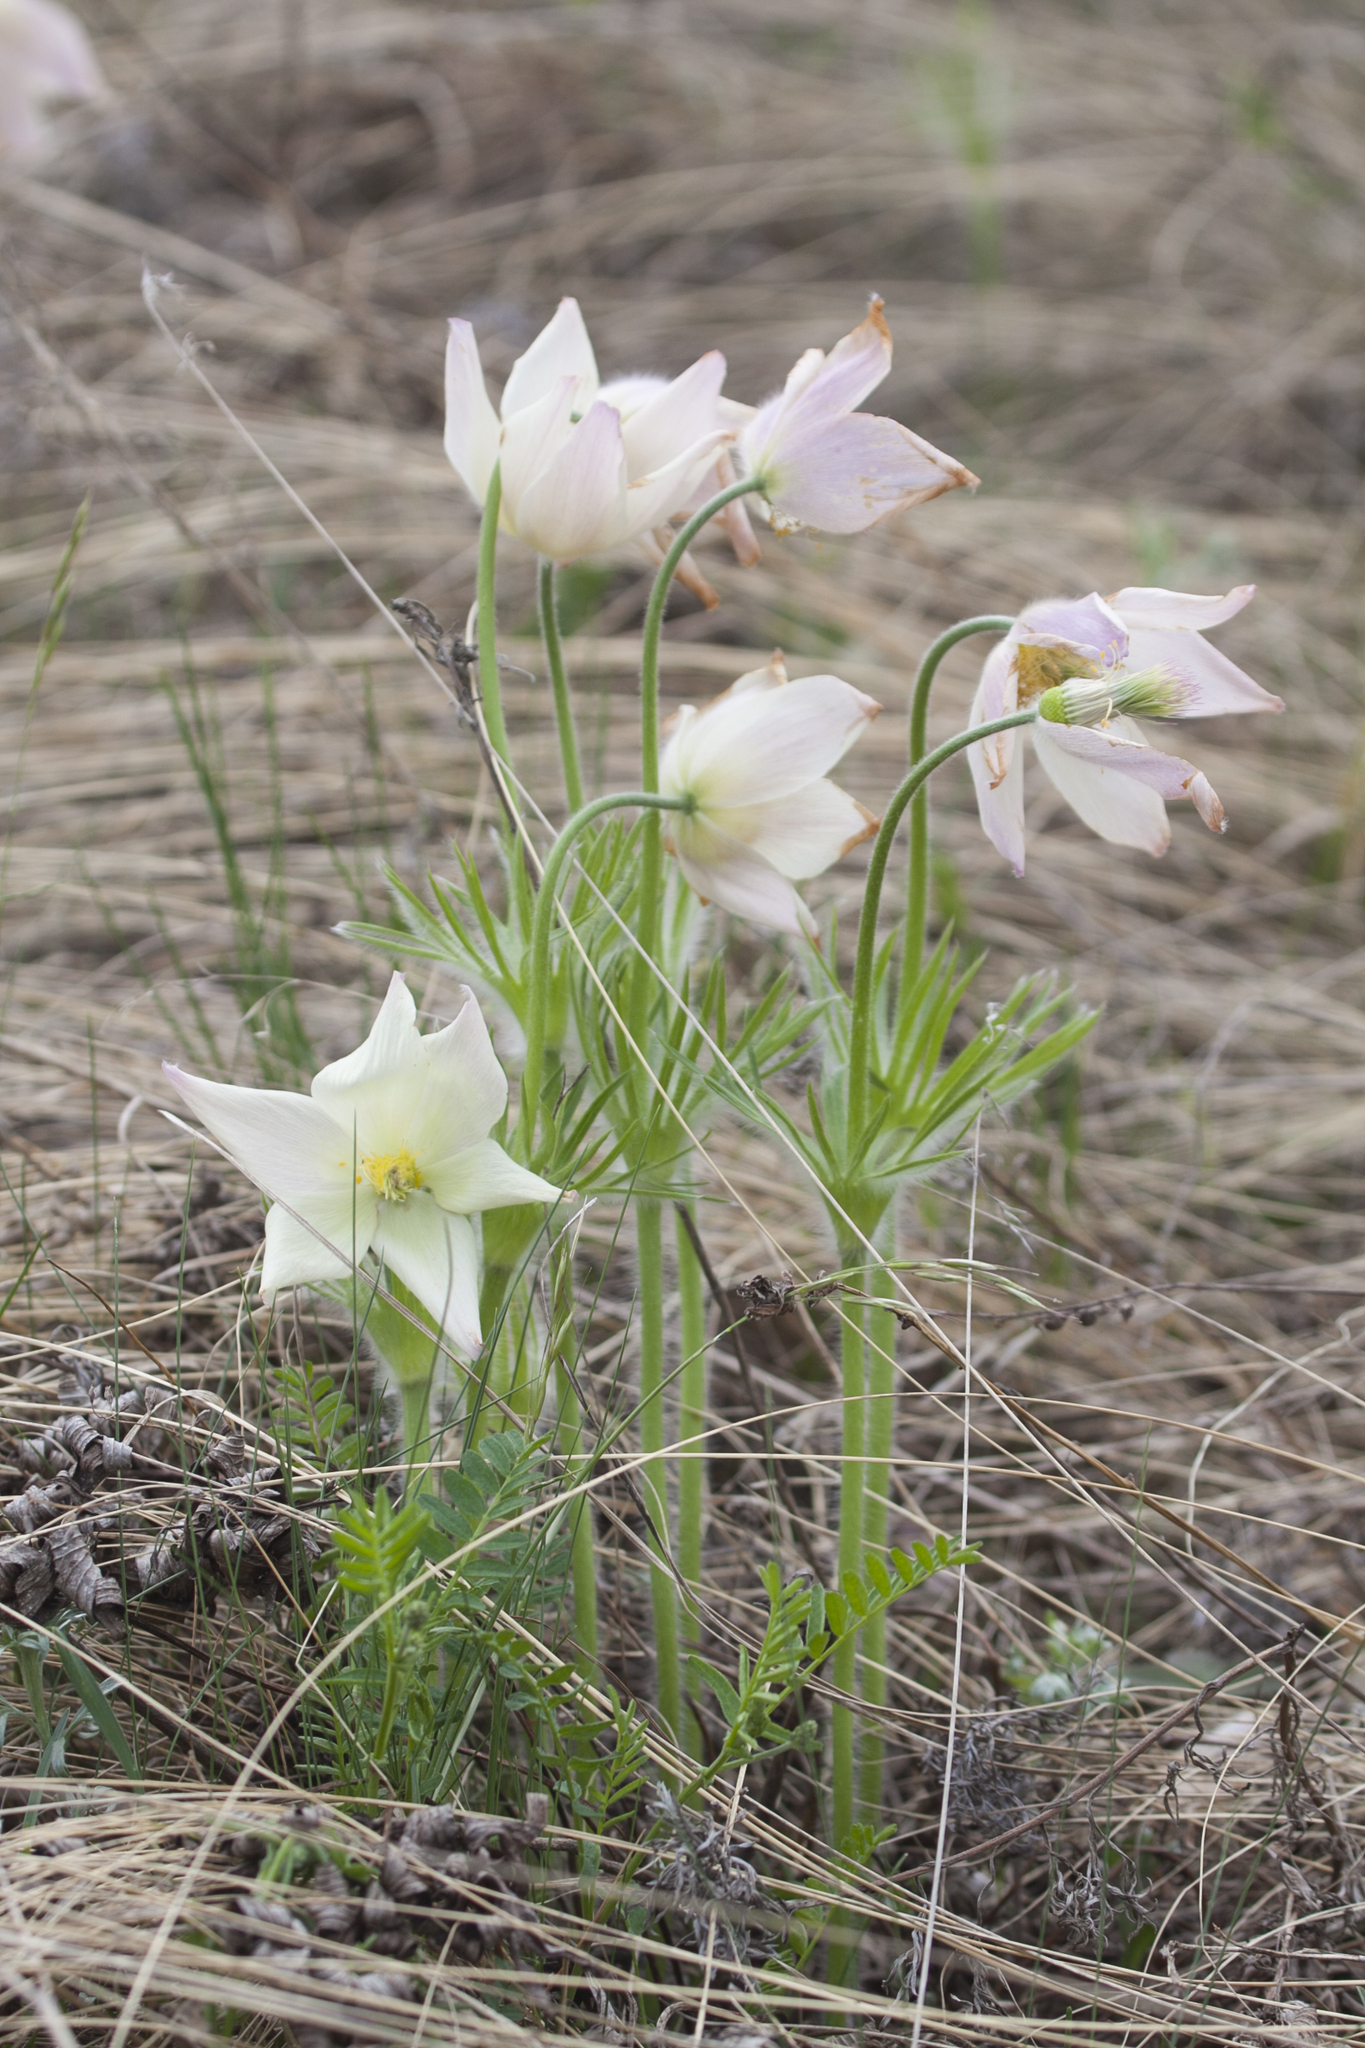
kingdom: Plantae
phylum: Tracheophyta
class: Magnoliopsida
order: Ranunculales
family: Ranunculaceae
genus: Pulsatilla
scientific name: Pulsatilla patens
